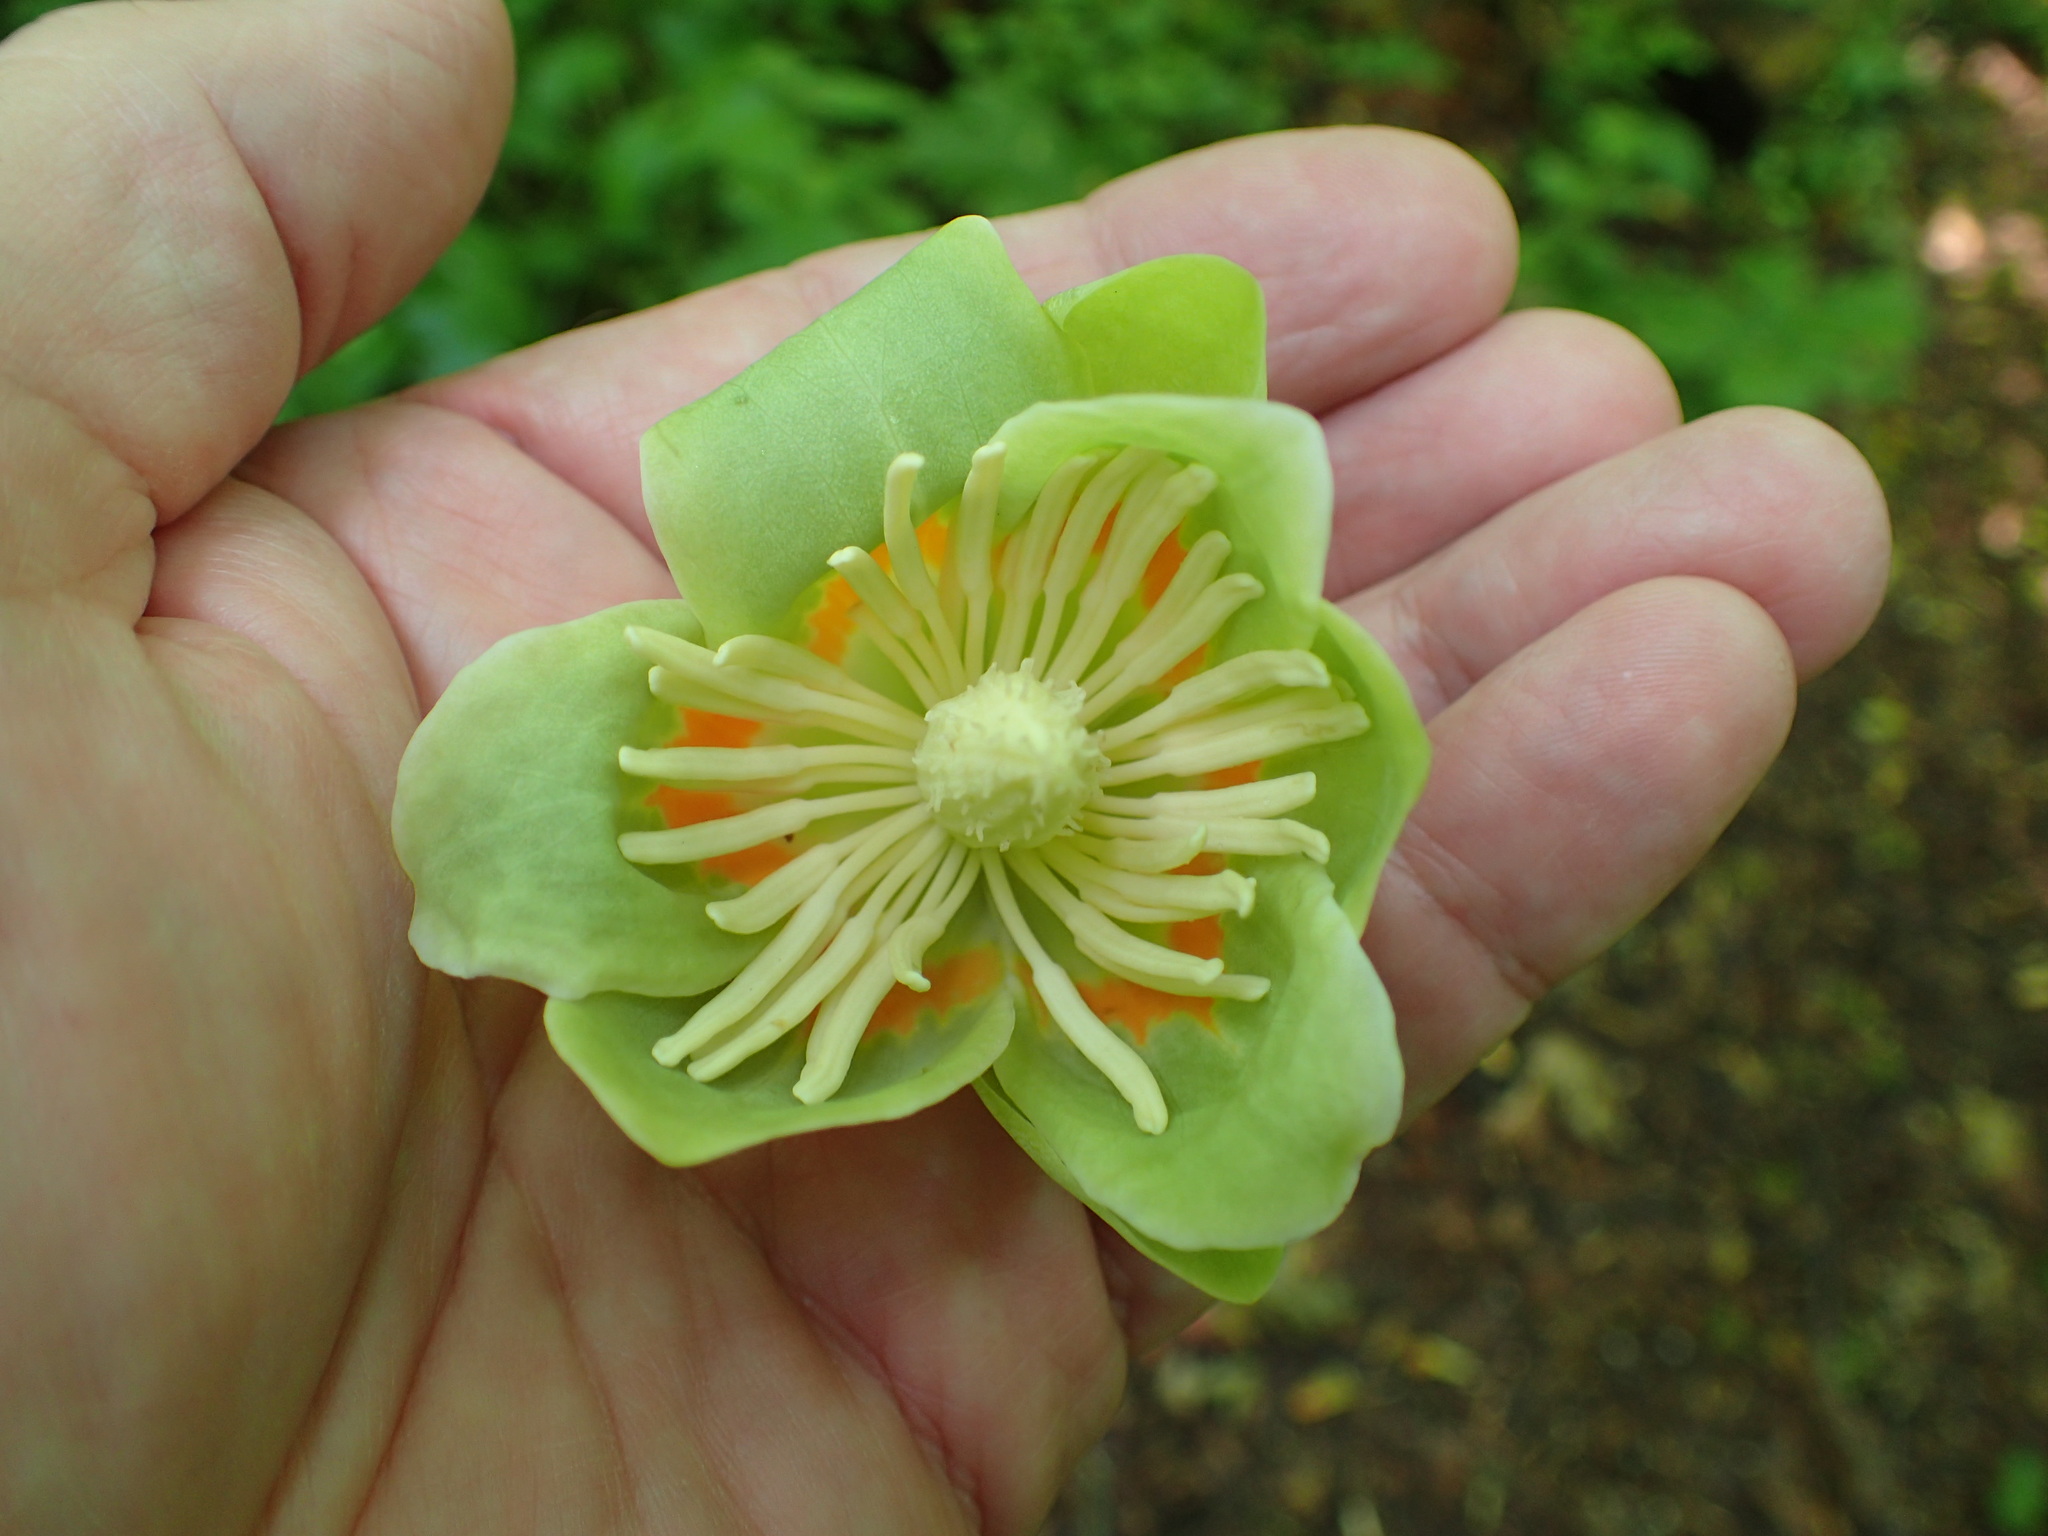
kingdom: Plantae
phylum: Tracheophyta
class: Magnoliopsida
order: Magnoliales
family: Magnoliaceae
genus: Liriodendron
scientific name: Liriodendron tulipifera
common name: Tulip tree
